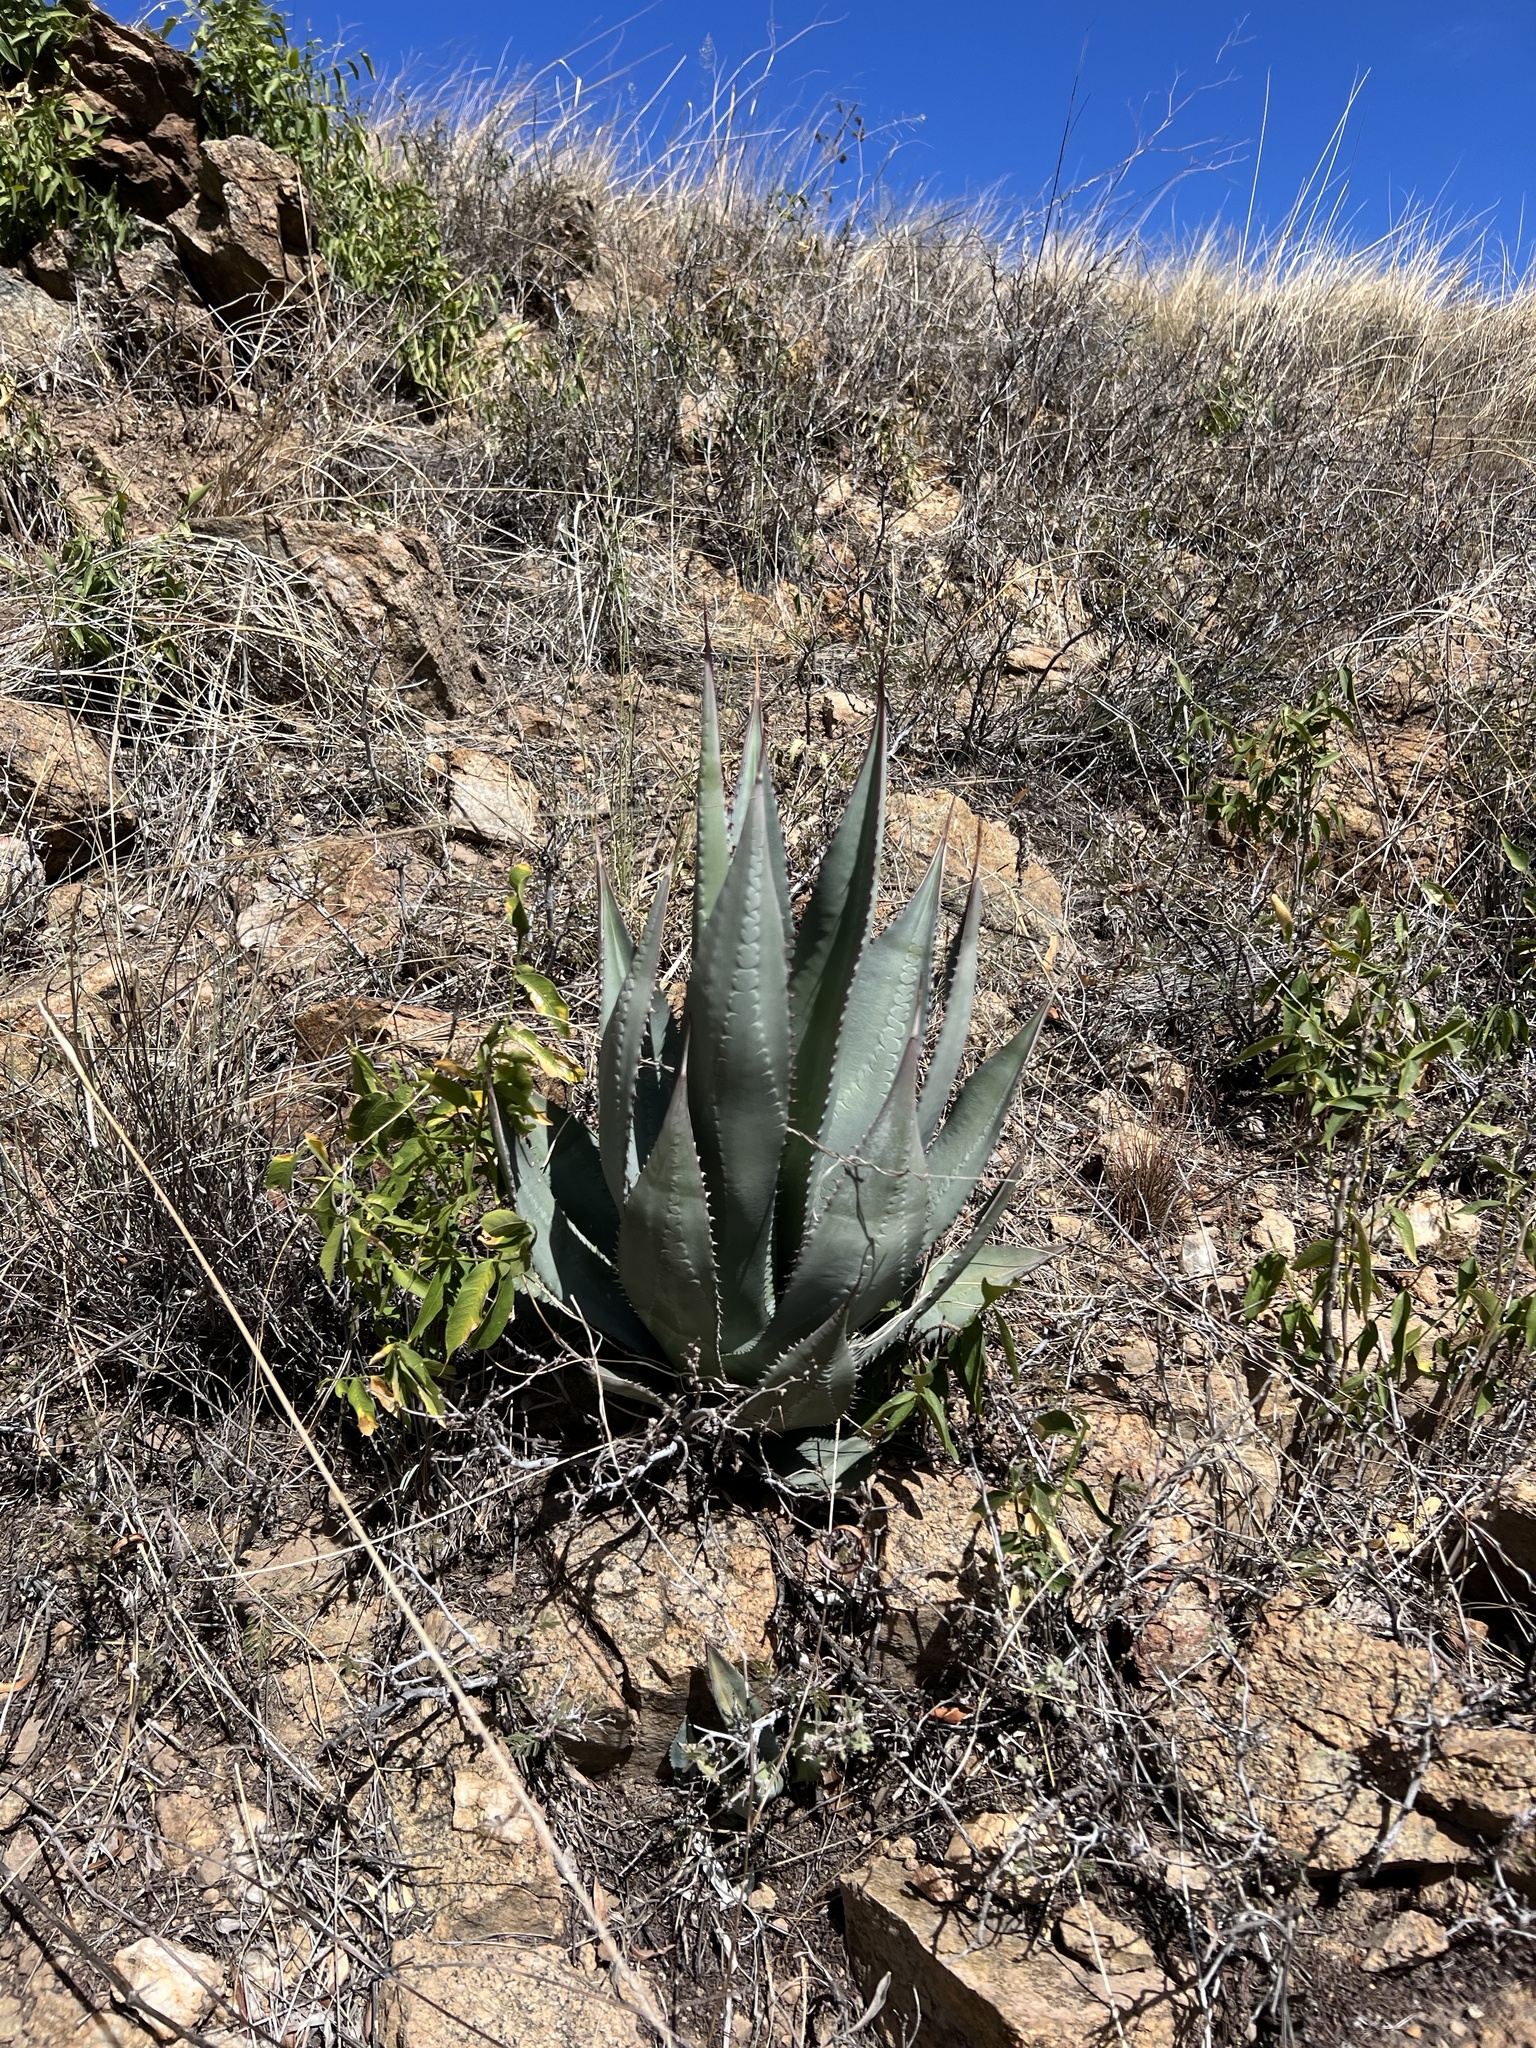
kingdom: Plantae
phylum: Tracheophyta
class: Liliopsida
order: Asparagales
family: Asparagaceae
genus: Agave
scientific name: Agave palmeri
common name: Palmer agave
